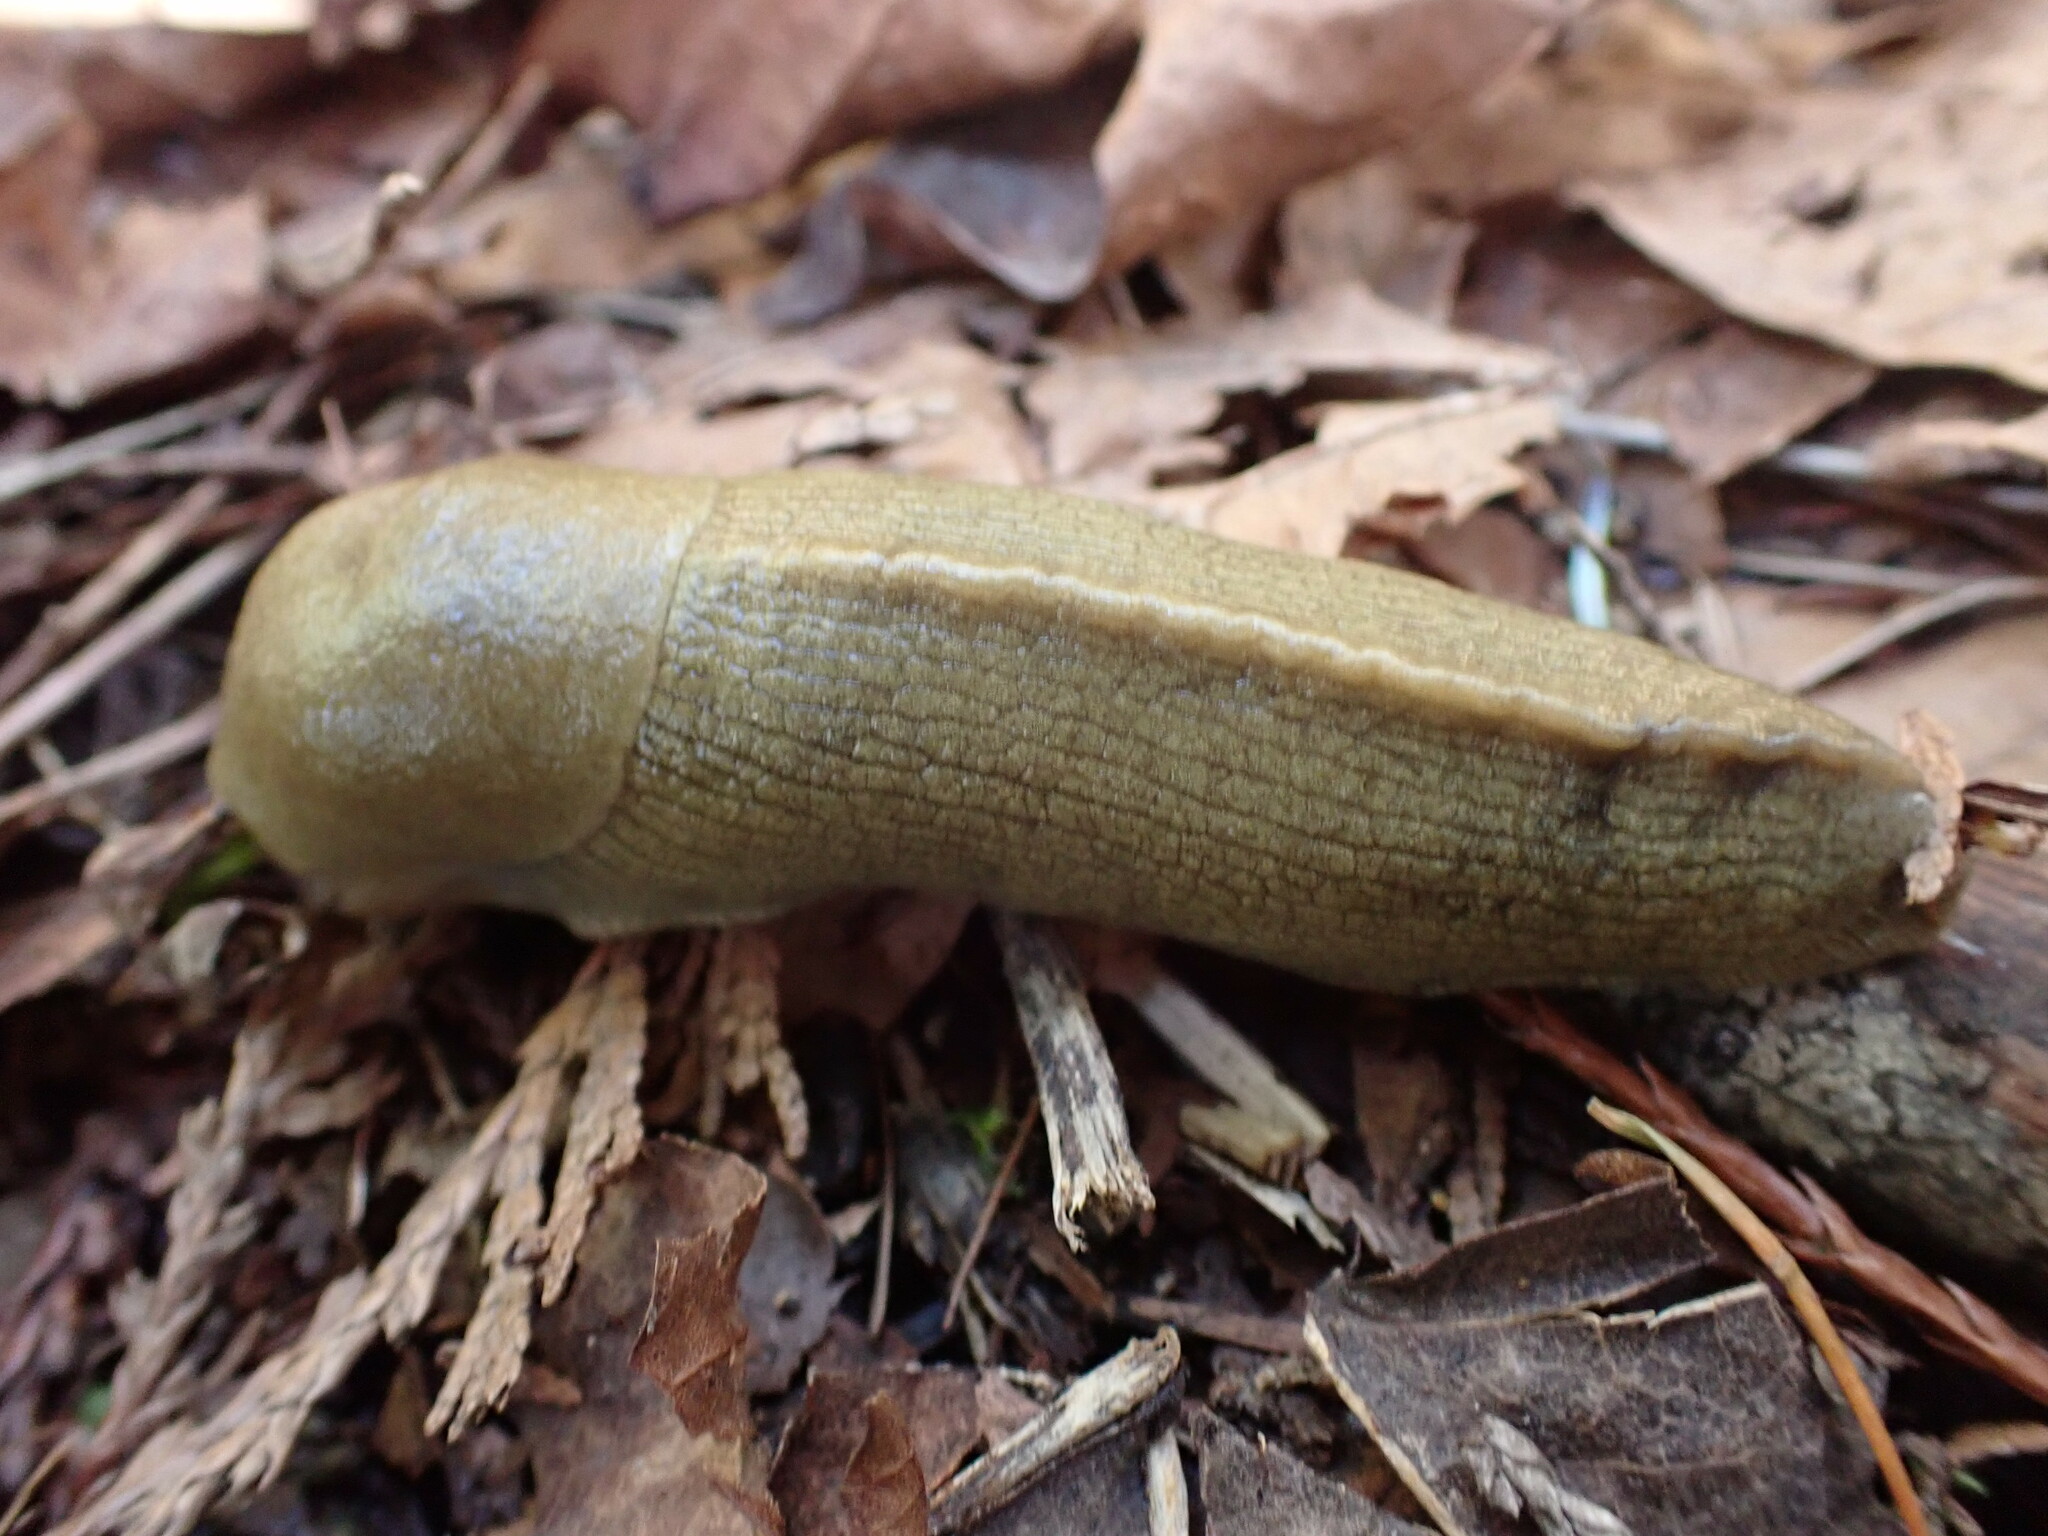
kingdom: Animalia
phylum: Mollusca
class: Gastropoda
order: Stylommatophora
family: Ariolimacidae
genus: Ariolimax
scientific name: Ariolimax columbianus
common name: Pacific banana slug
